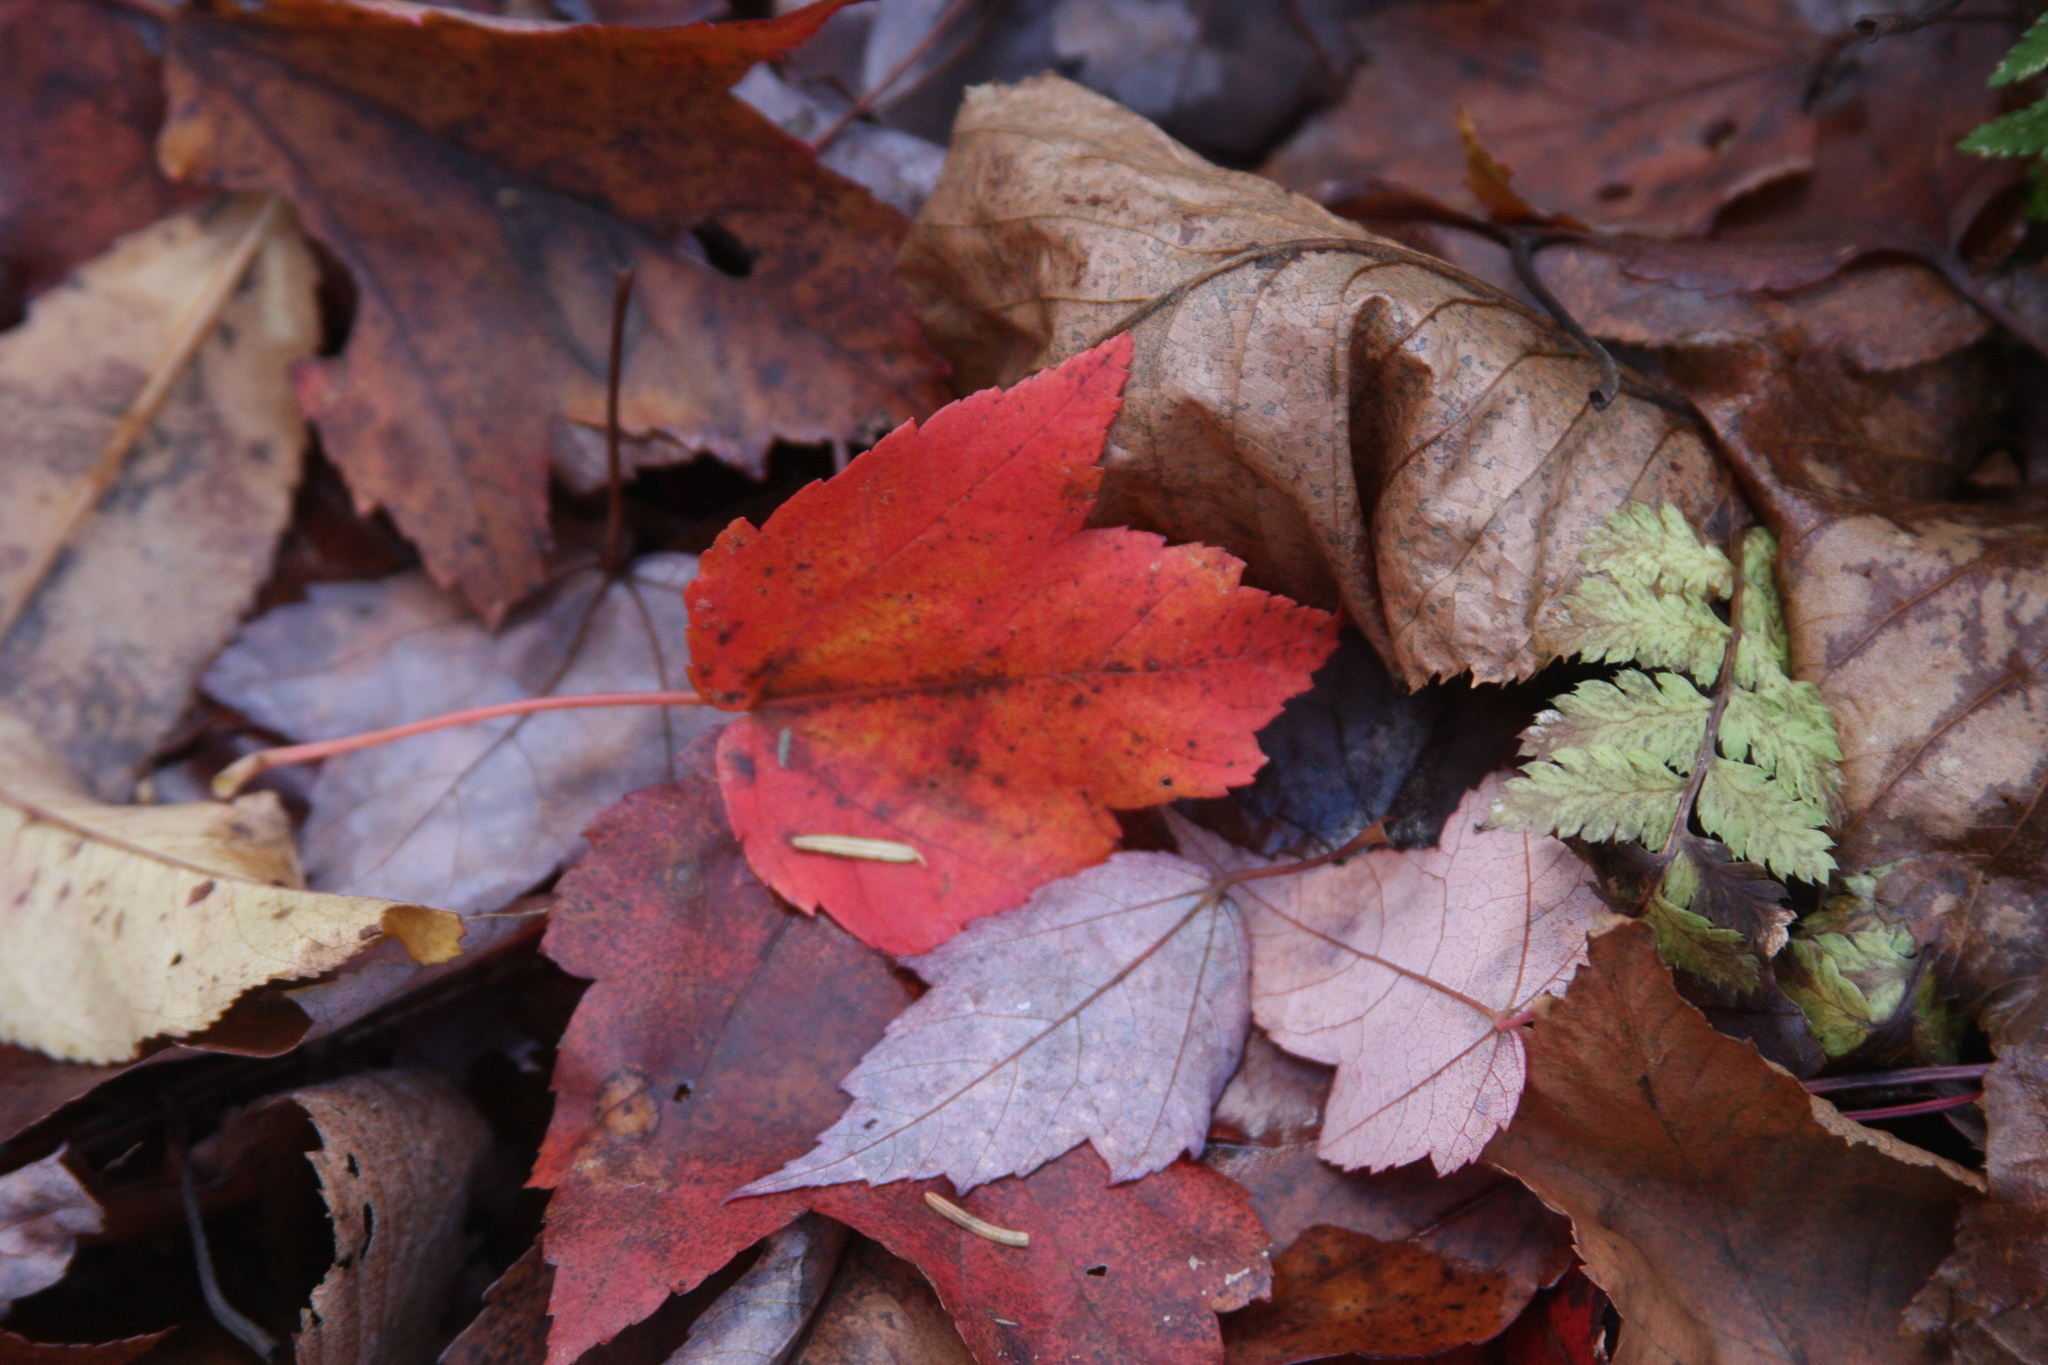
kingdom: Plantae
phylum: Tracheophyta
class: Magnoliopsida
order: Sapindales
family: Sapindaceae
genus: Acer
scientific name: Acer rubrum
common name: Red maple
